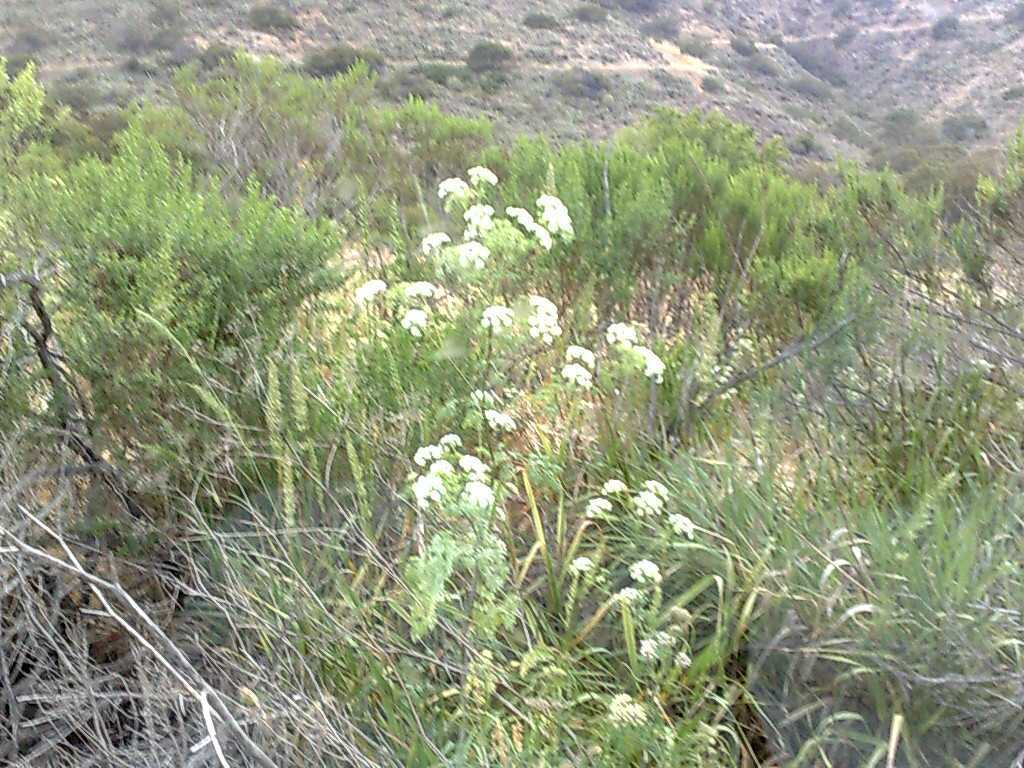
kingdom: Plantae
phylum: Tracheophyta
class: Magnoliopsida
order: Asterales
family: Asteraceae
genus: Baccharis
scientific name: Baccharis pilularis
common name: Coyotebrush
